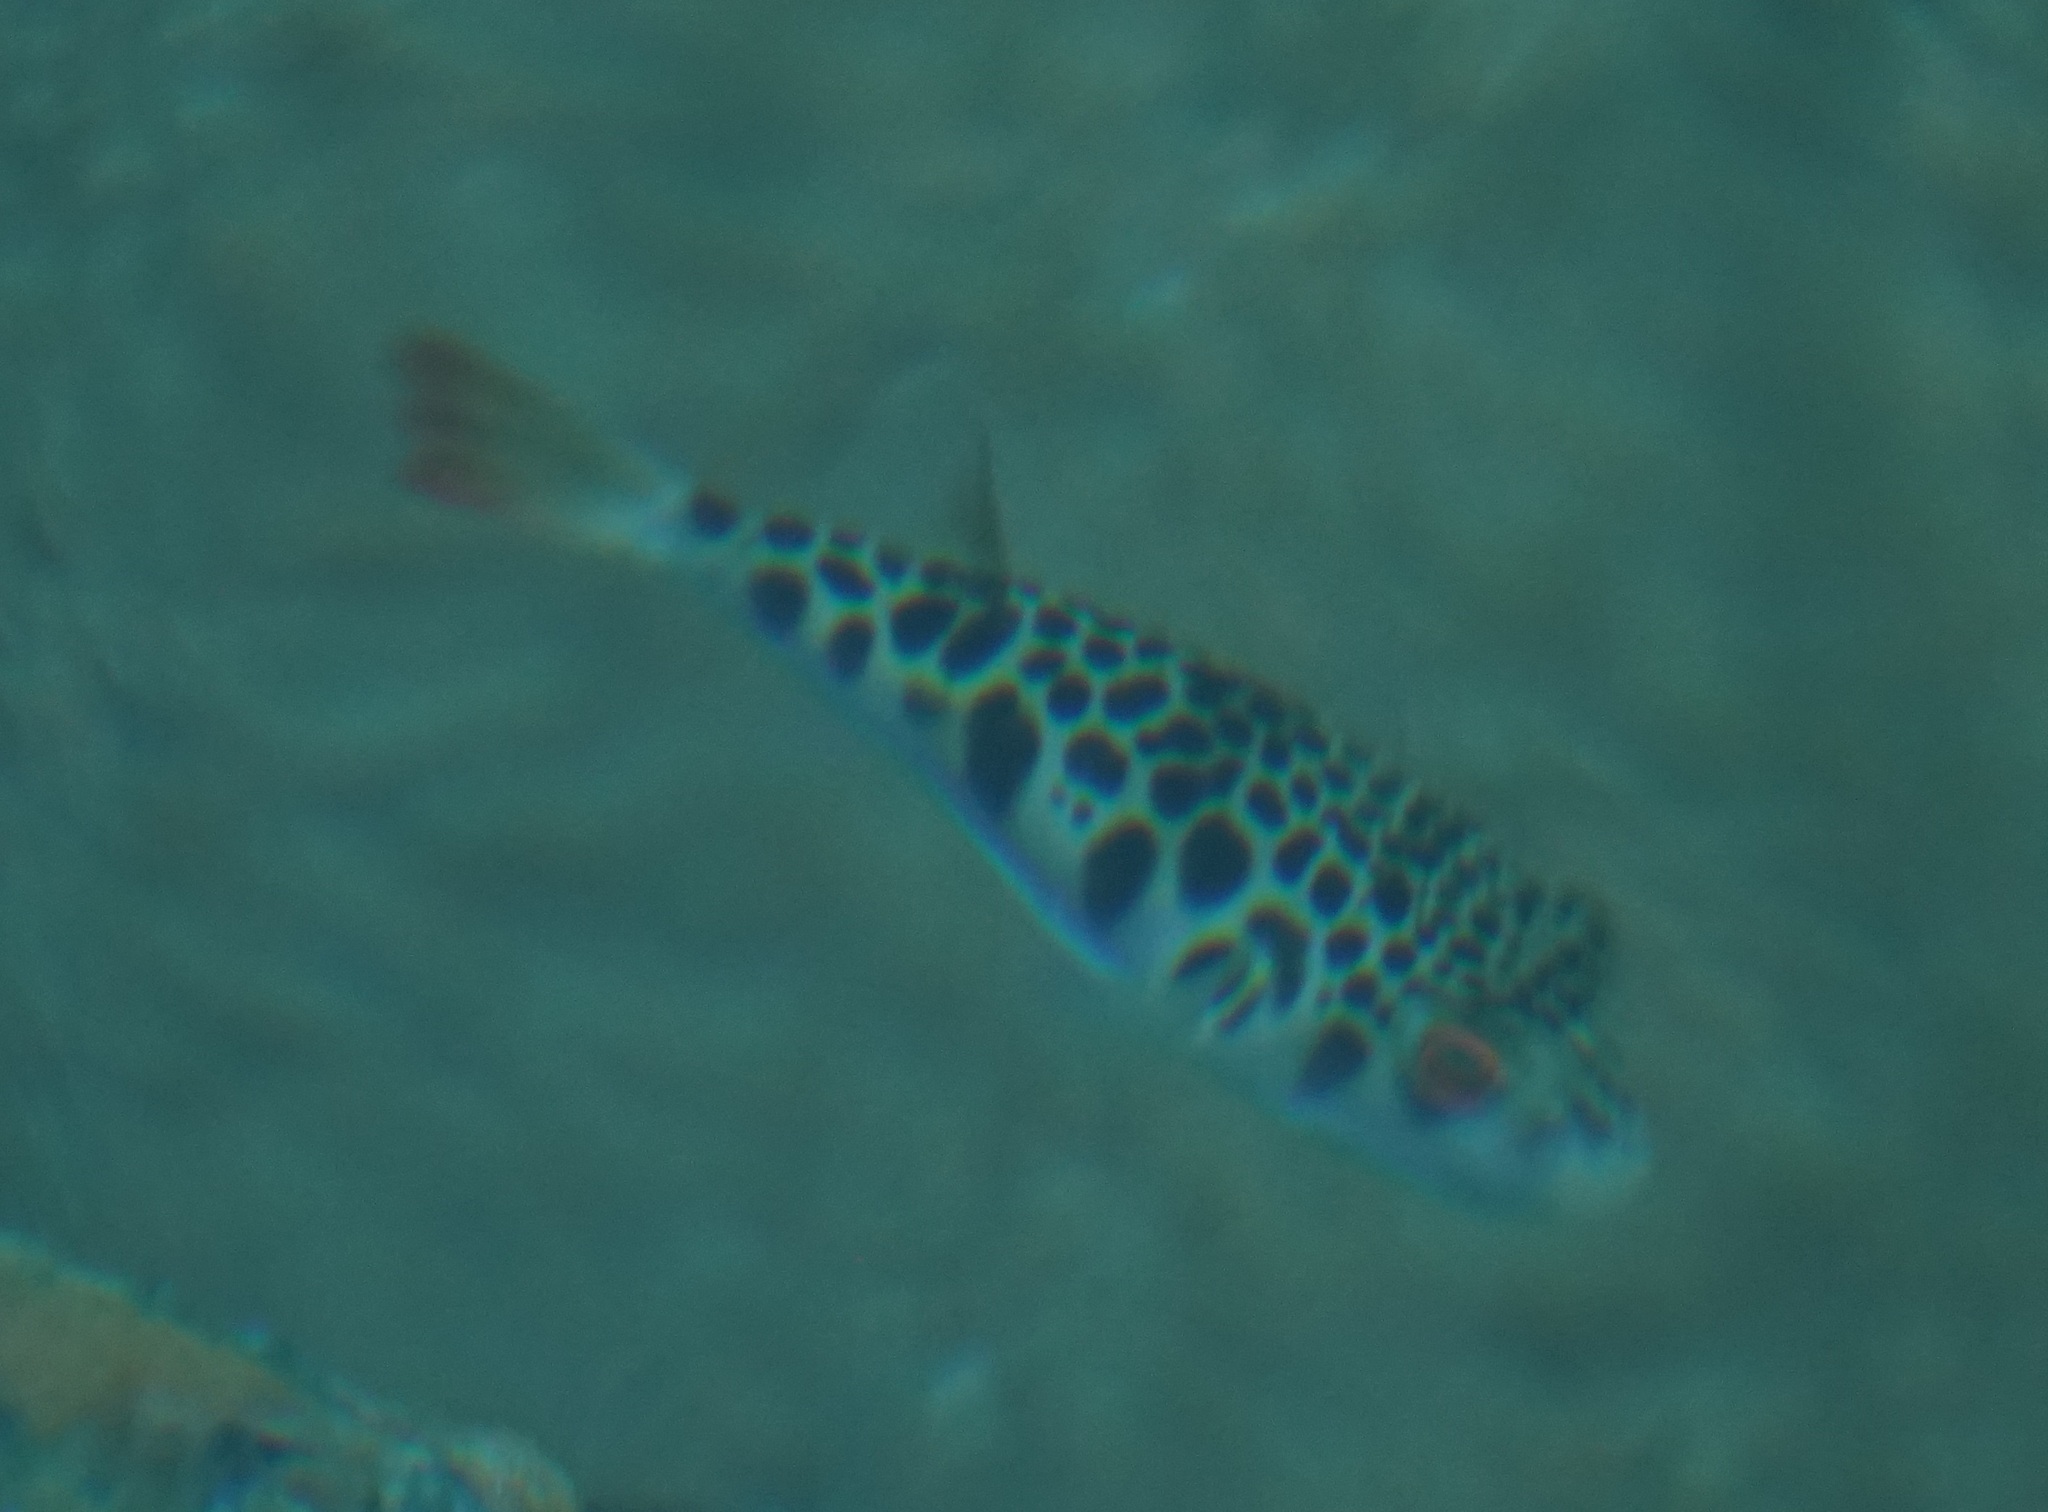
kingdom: Animalia
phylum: Chordata
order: Tetraodontiformes
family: Tetraodontidae
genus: Tetractenos
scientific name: Tetractenos glaber
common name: Smooth toadfish
